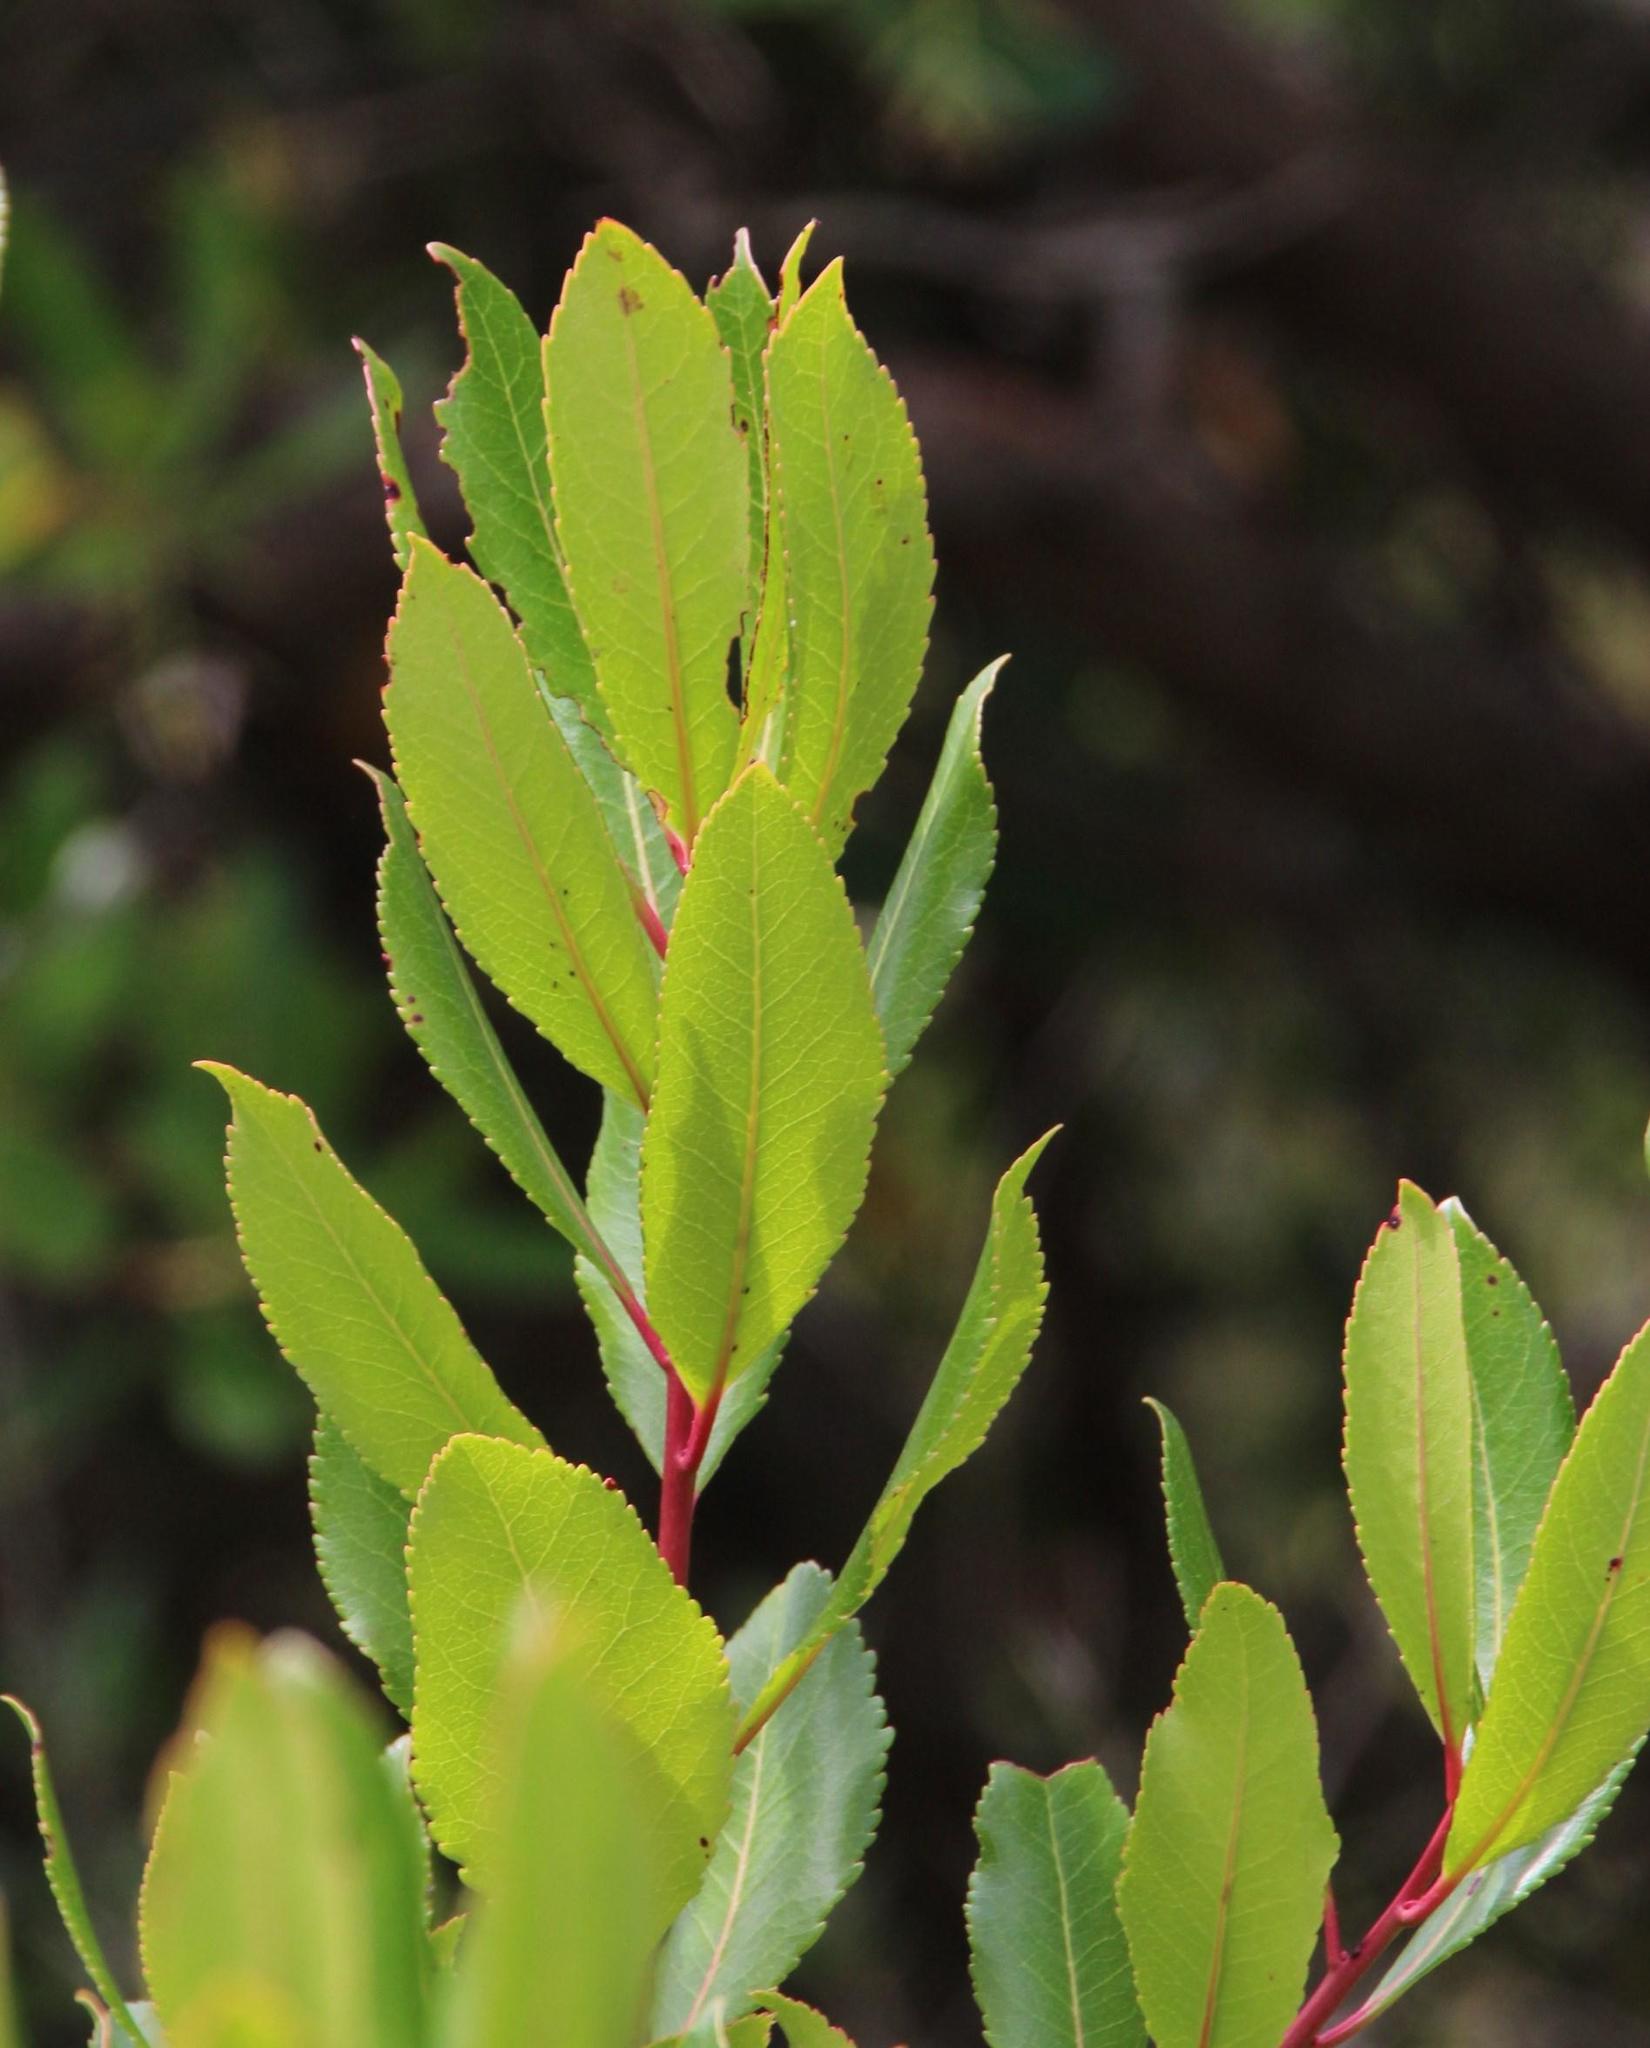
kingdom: Plantae
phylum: Tracheophyta
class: Magnoliopsida
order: Ericales
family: Ericaceae
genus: Arbutus
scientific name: Arbutus unedo
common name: Strawberry-tree
